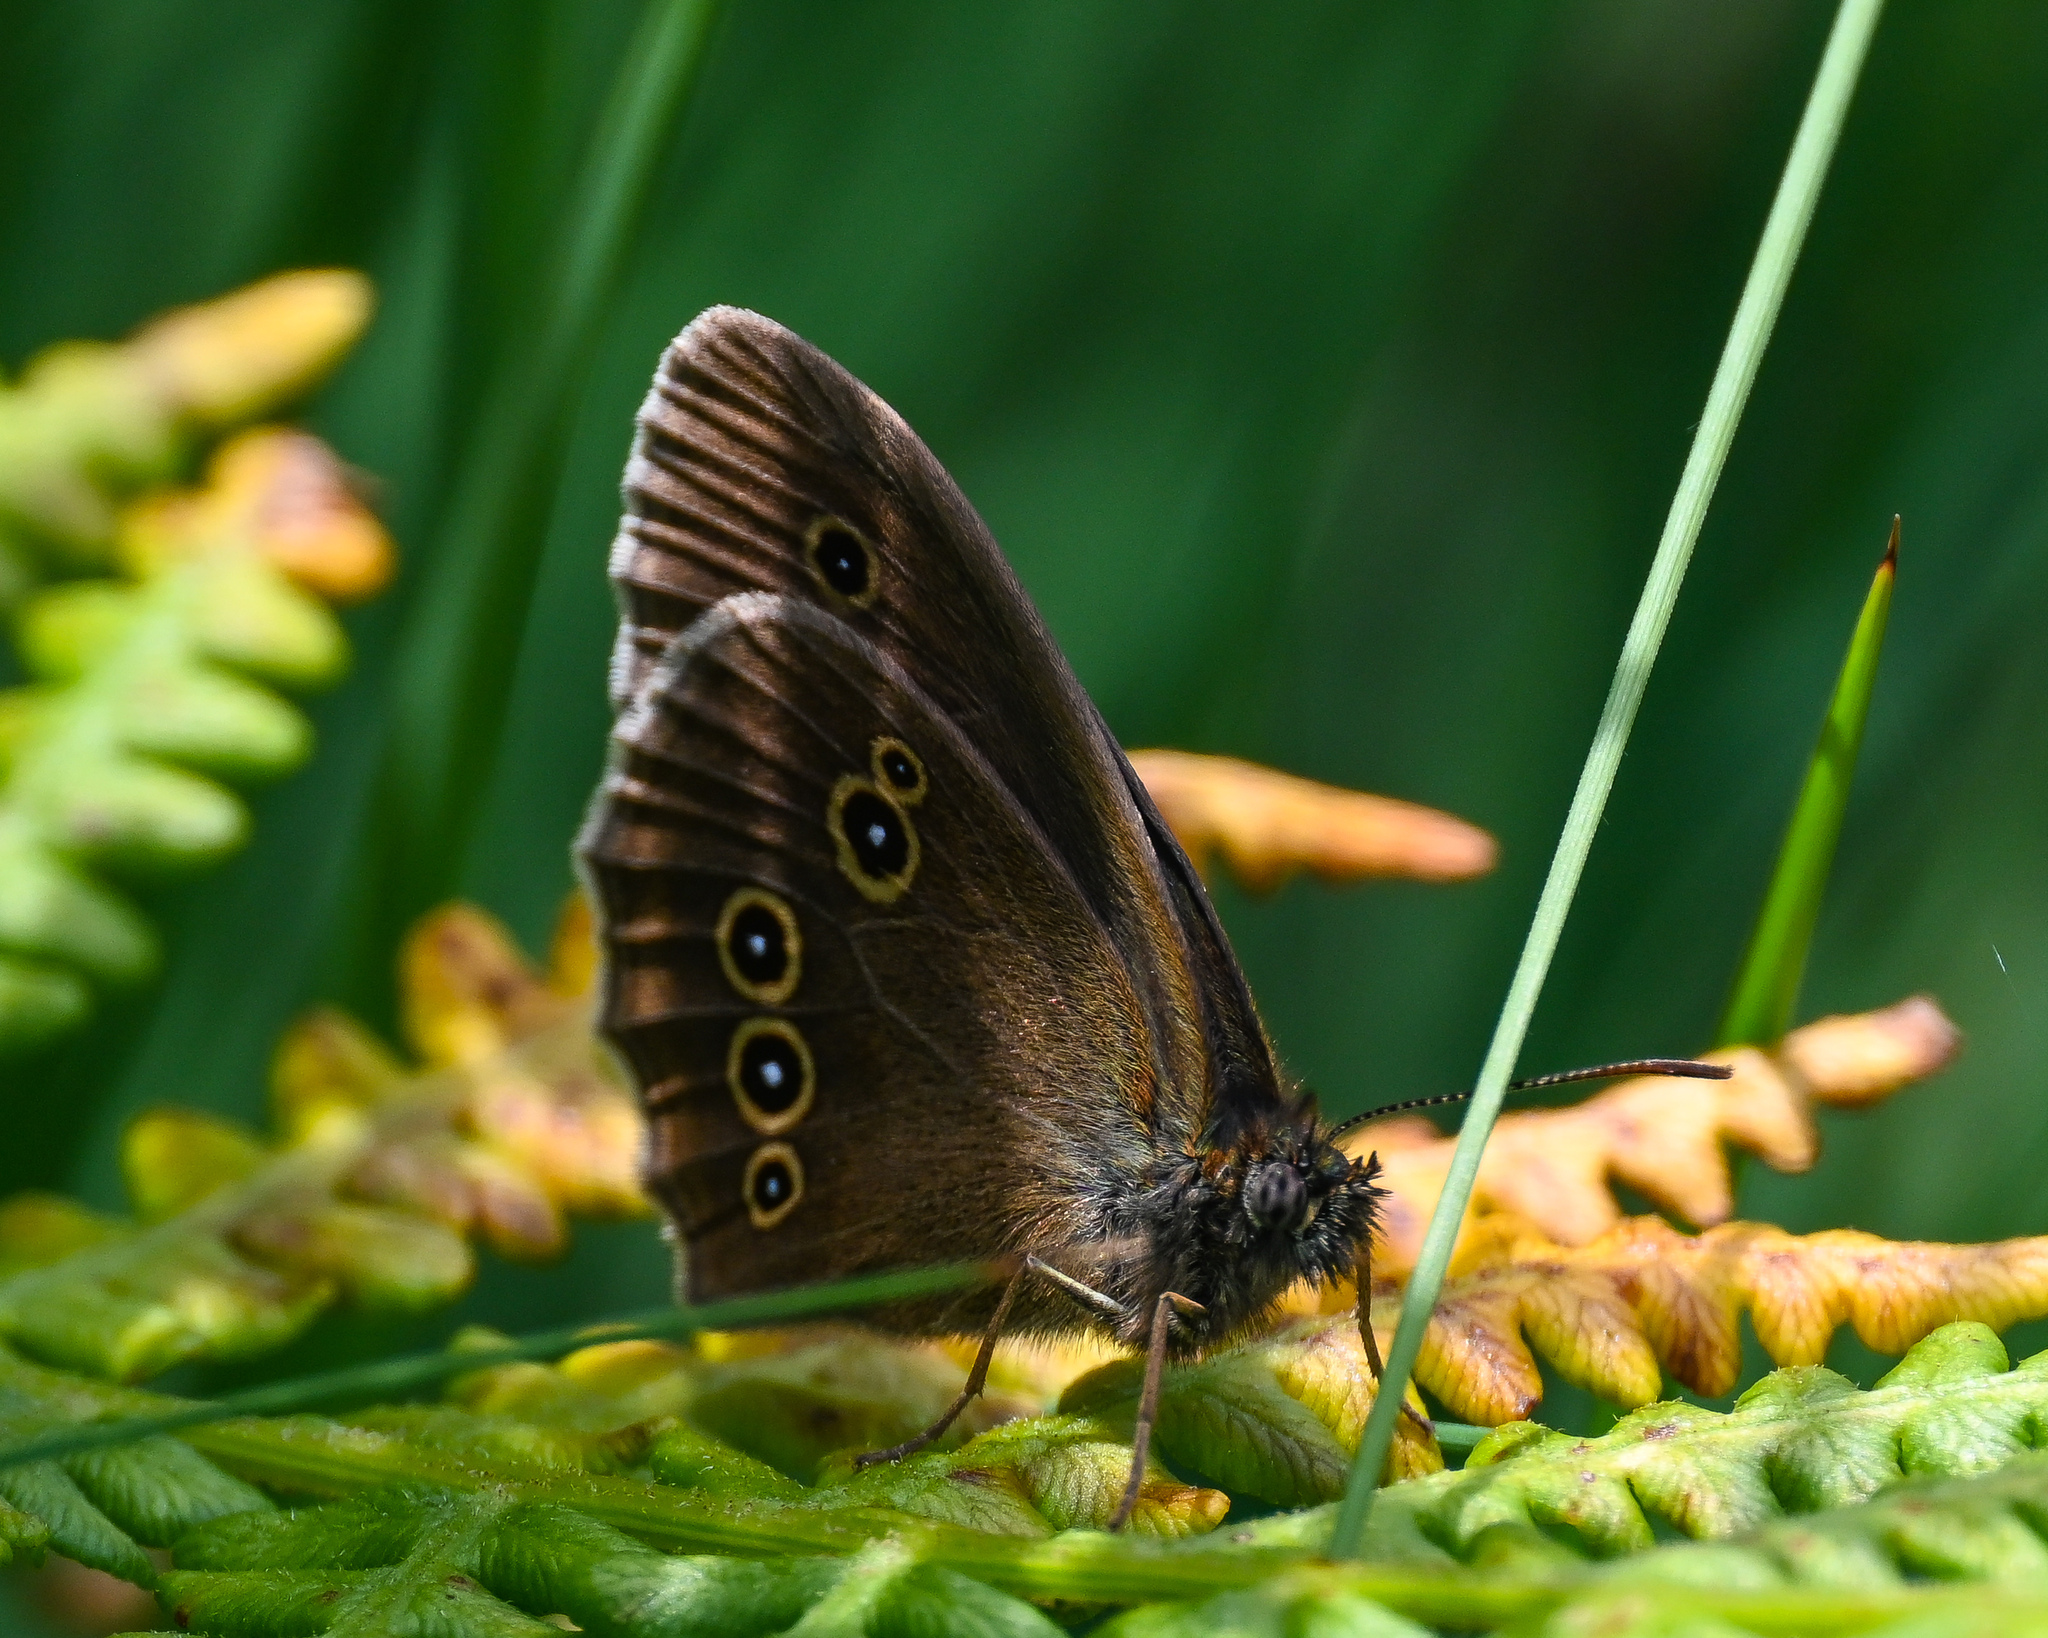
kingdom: Animalia
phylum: Arthropoda
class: Insecta
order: Lepidoptera
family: Nymphalidae
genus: Aphantopus
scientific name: Aphantopus hyperantus
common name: Ringlet
